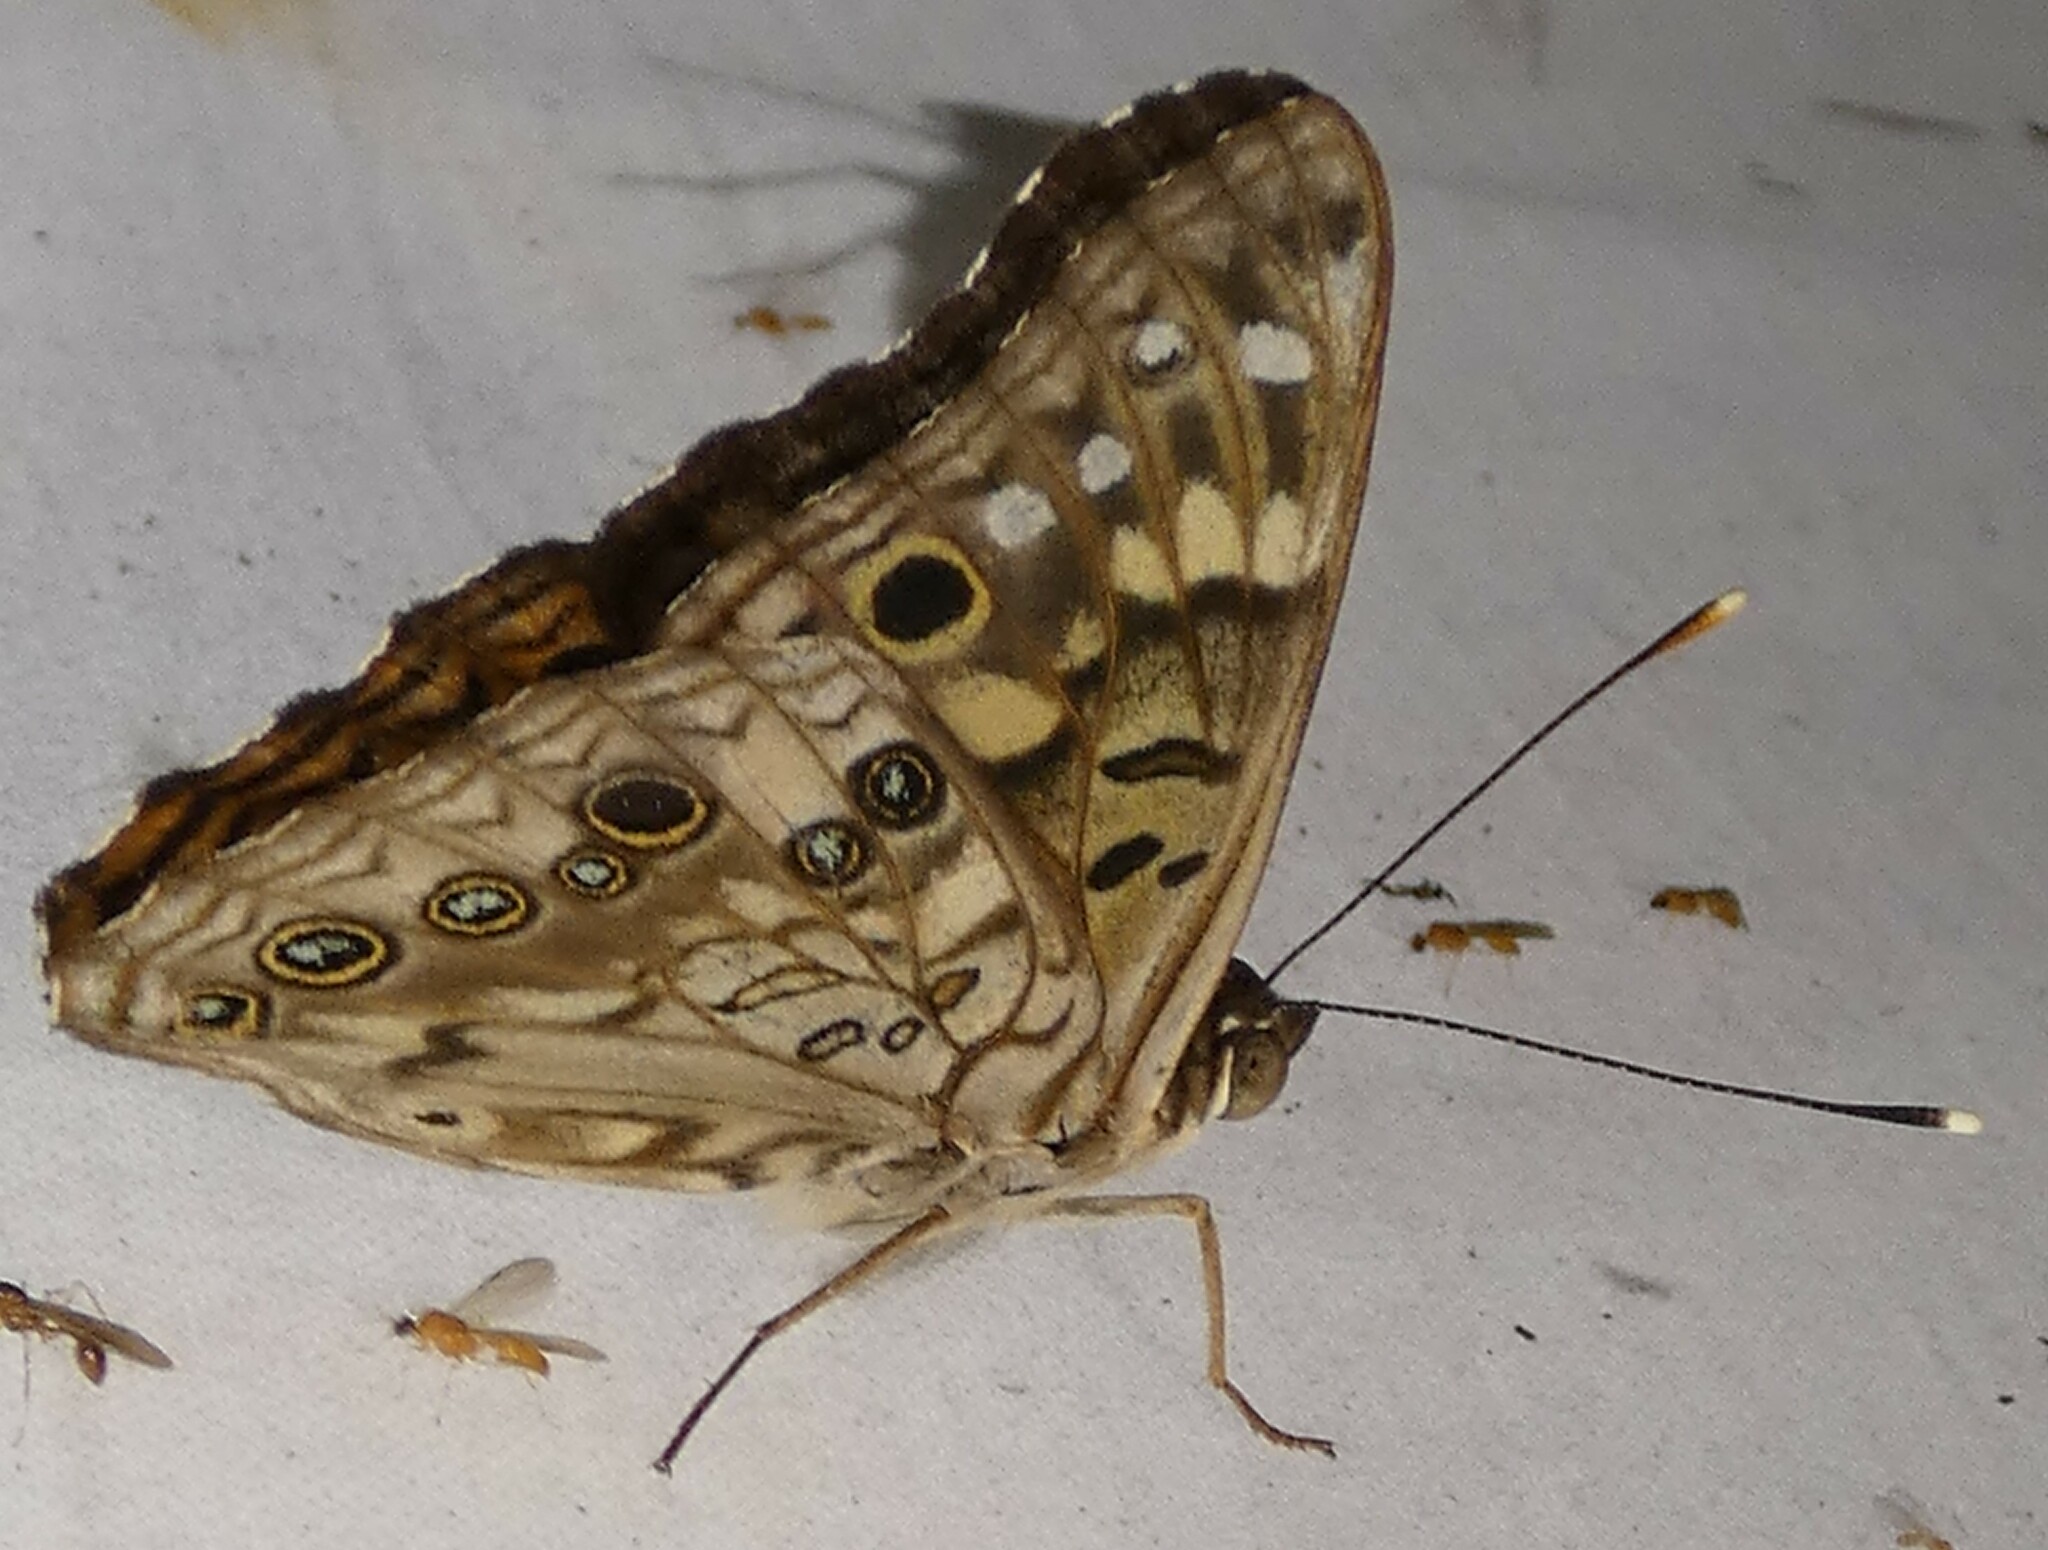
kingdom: Animalia
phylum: Arthropoda
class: Insecta
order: Lepidoptera
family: Nymphalidae
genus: Asterocampa
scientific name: Asterocampa celtis
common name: Hackberry emperor
